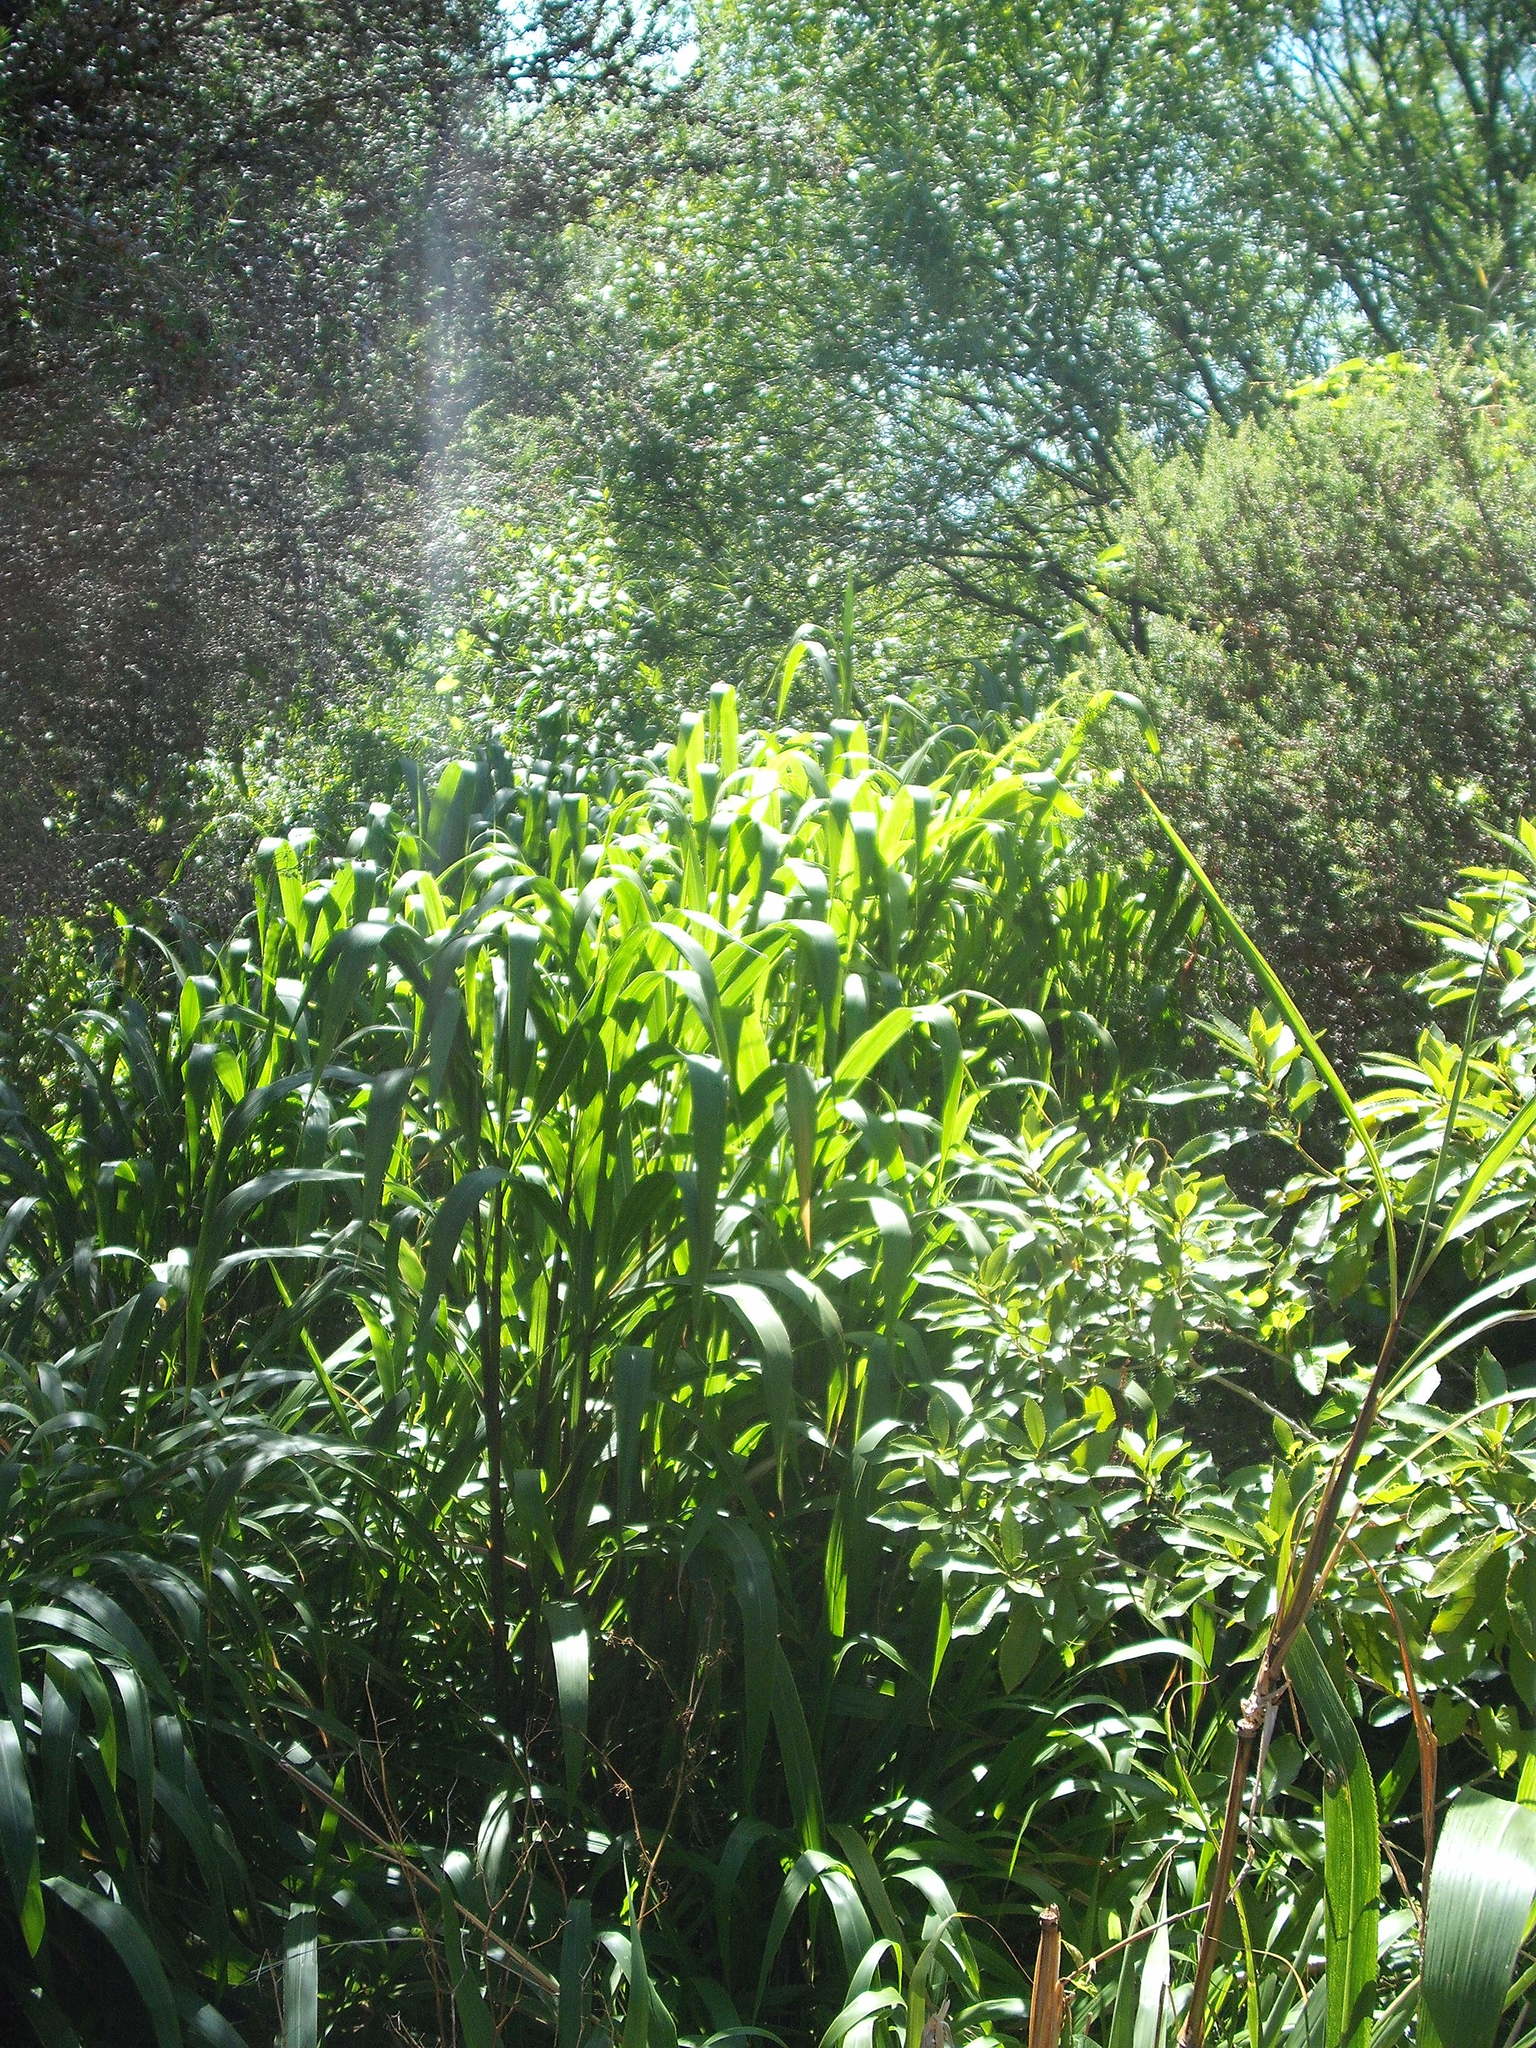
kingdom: Plantae
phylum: Tracheophyta
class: Liliopsida
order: Poales
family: Poaceae
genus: Cenchrus
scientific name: Cenchrus latifolius
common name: Sandbur
